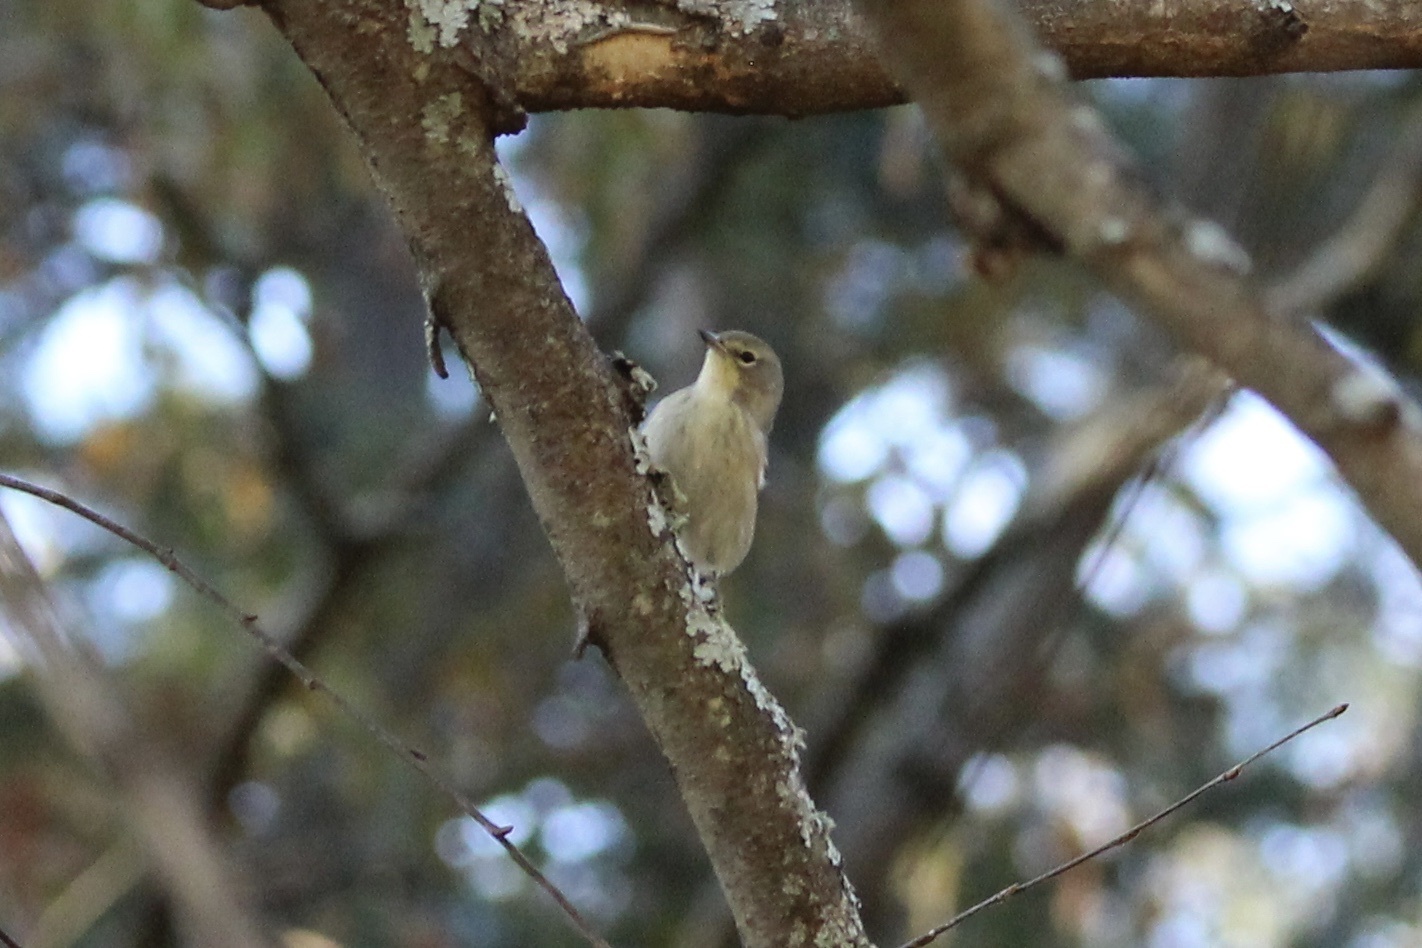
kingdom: Animalia
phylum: Chordata
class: Aves
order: Passeriformes
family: Parulidae
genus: Setophaga
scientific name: Setophaga pinus
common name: Pine warbler
